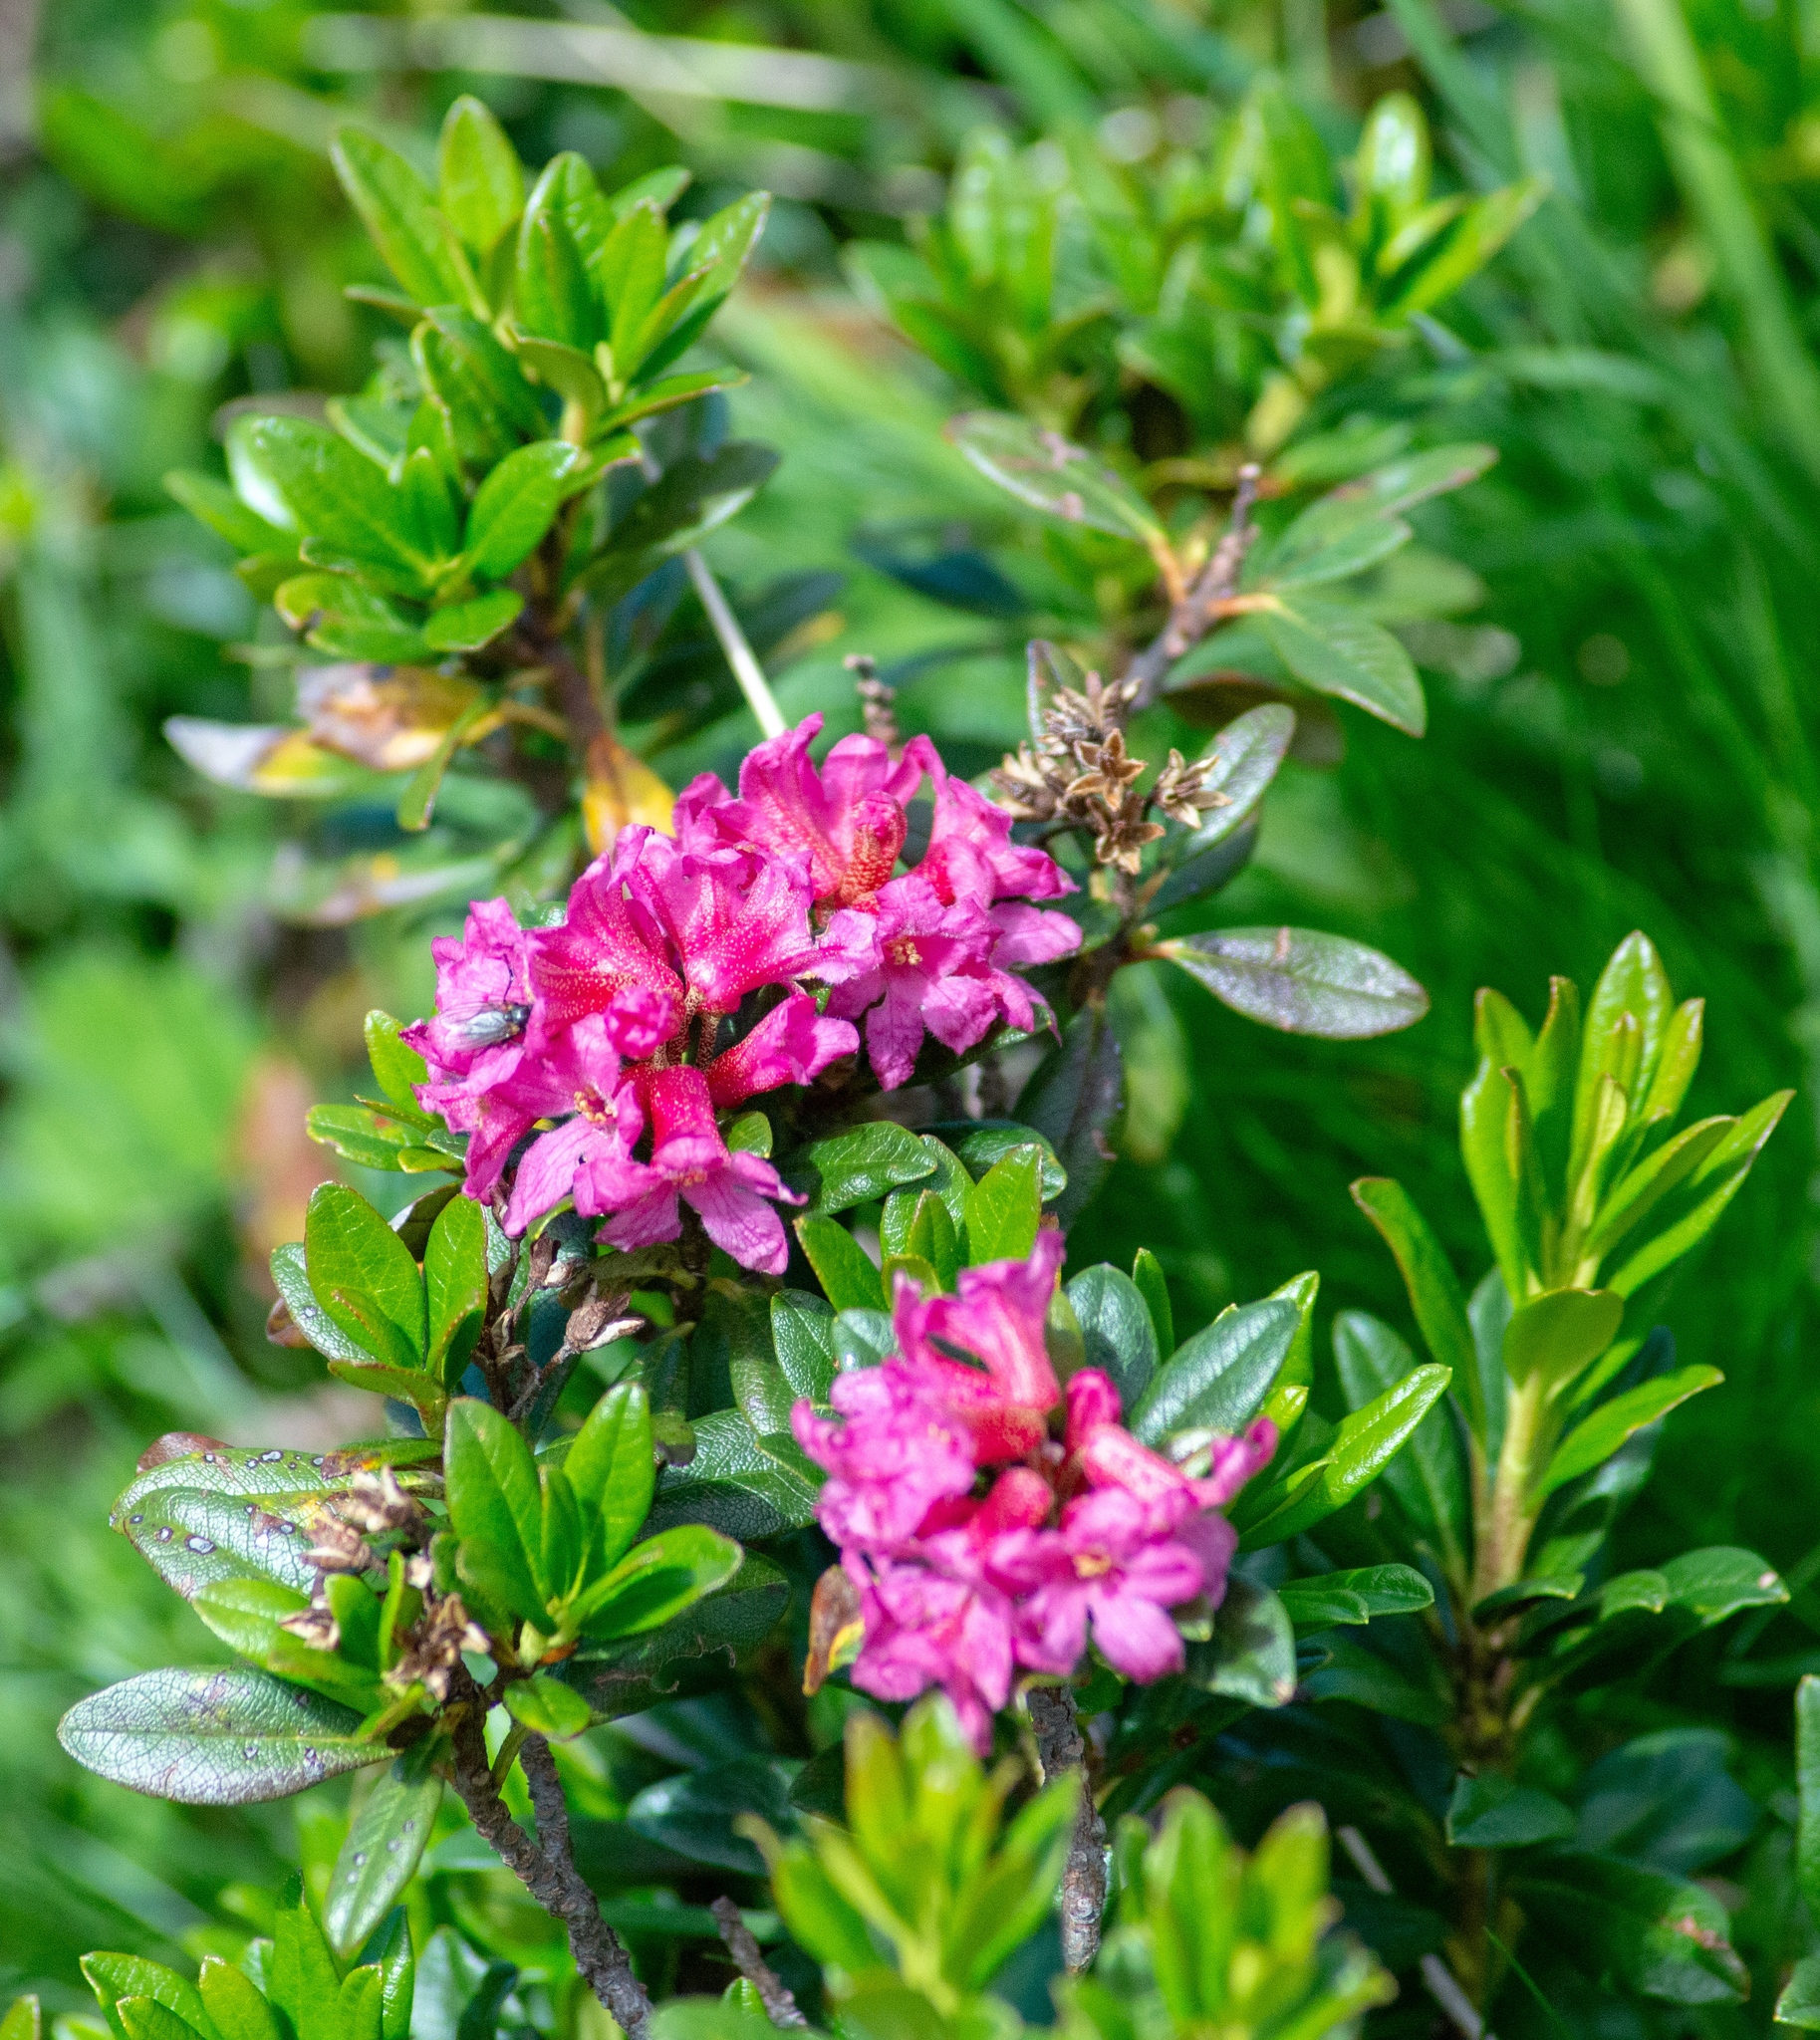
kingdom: Plantae
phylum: Tracheophyta
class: Magnoliopsida
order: Ericales
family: Ericaceae
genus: Rhododendron
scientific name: Rhododendron ferrugineum
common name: Alpenrose
